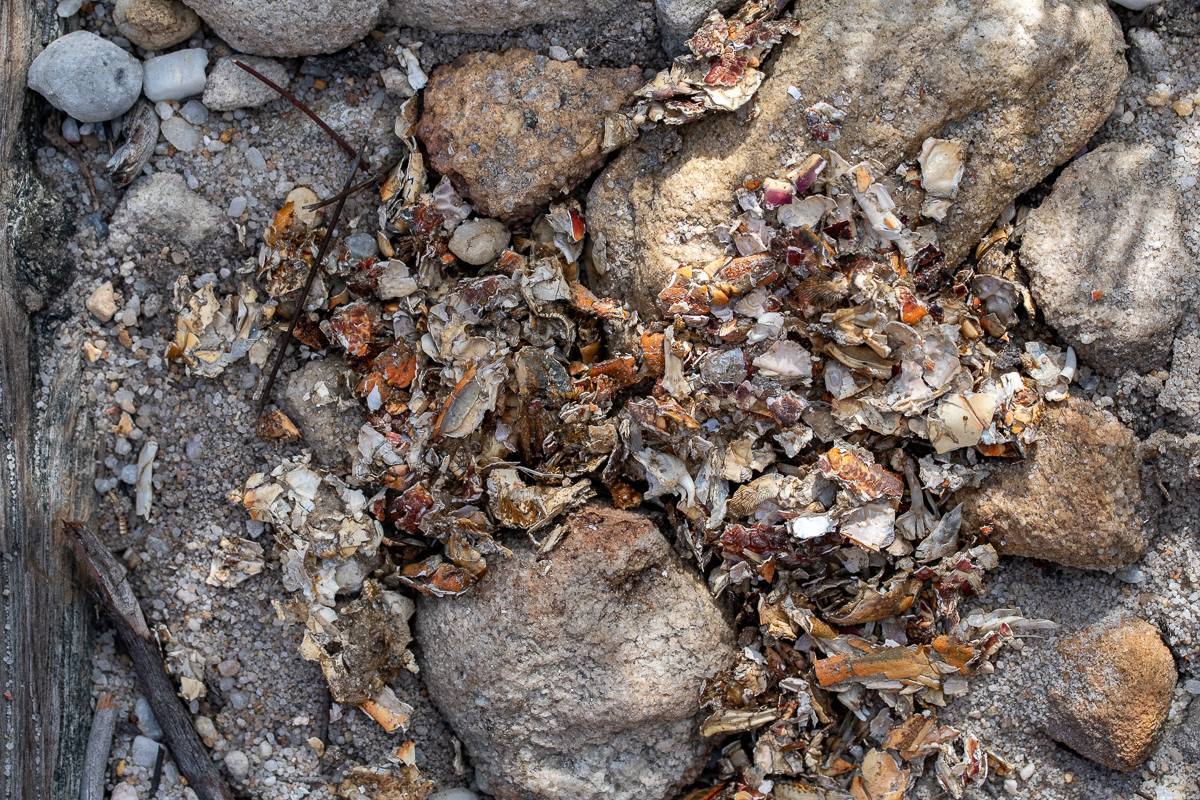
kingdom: Animalia
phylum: Chordata
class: Mammalia
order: Carnivora
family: Mustelidae
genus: Aonyx
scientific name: Aonyx capensis
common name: African clawless otter
